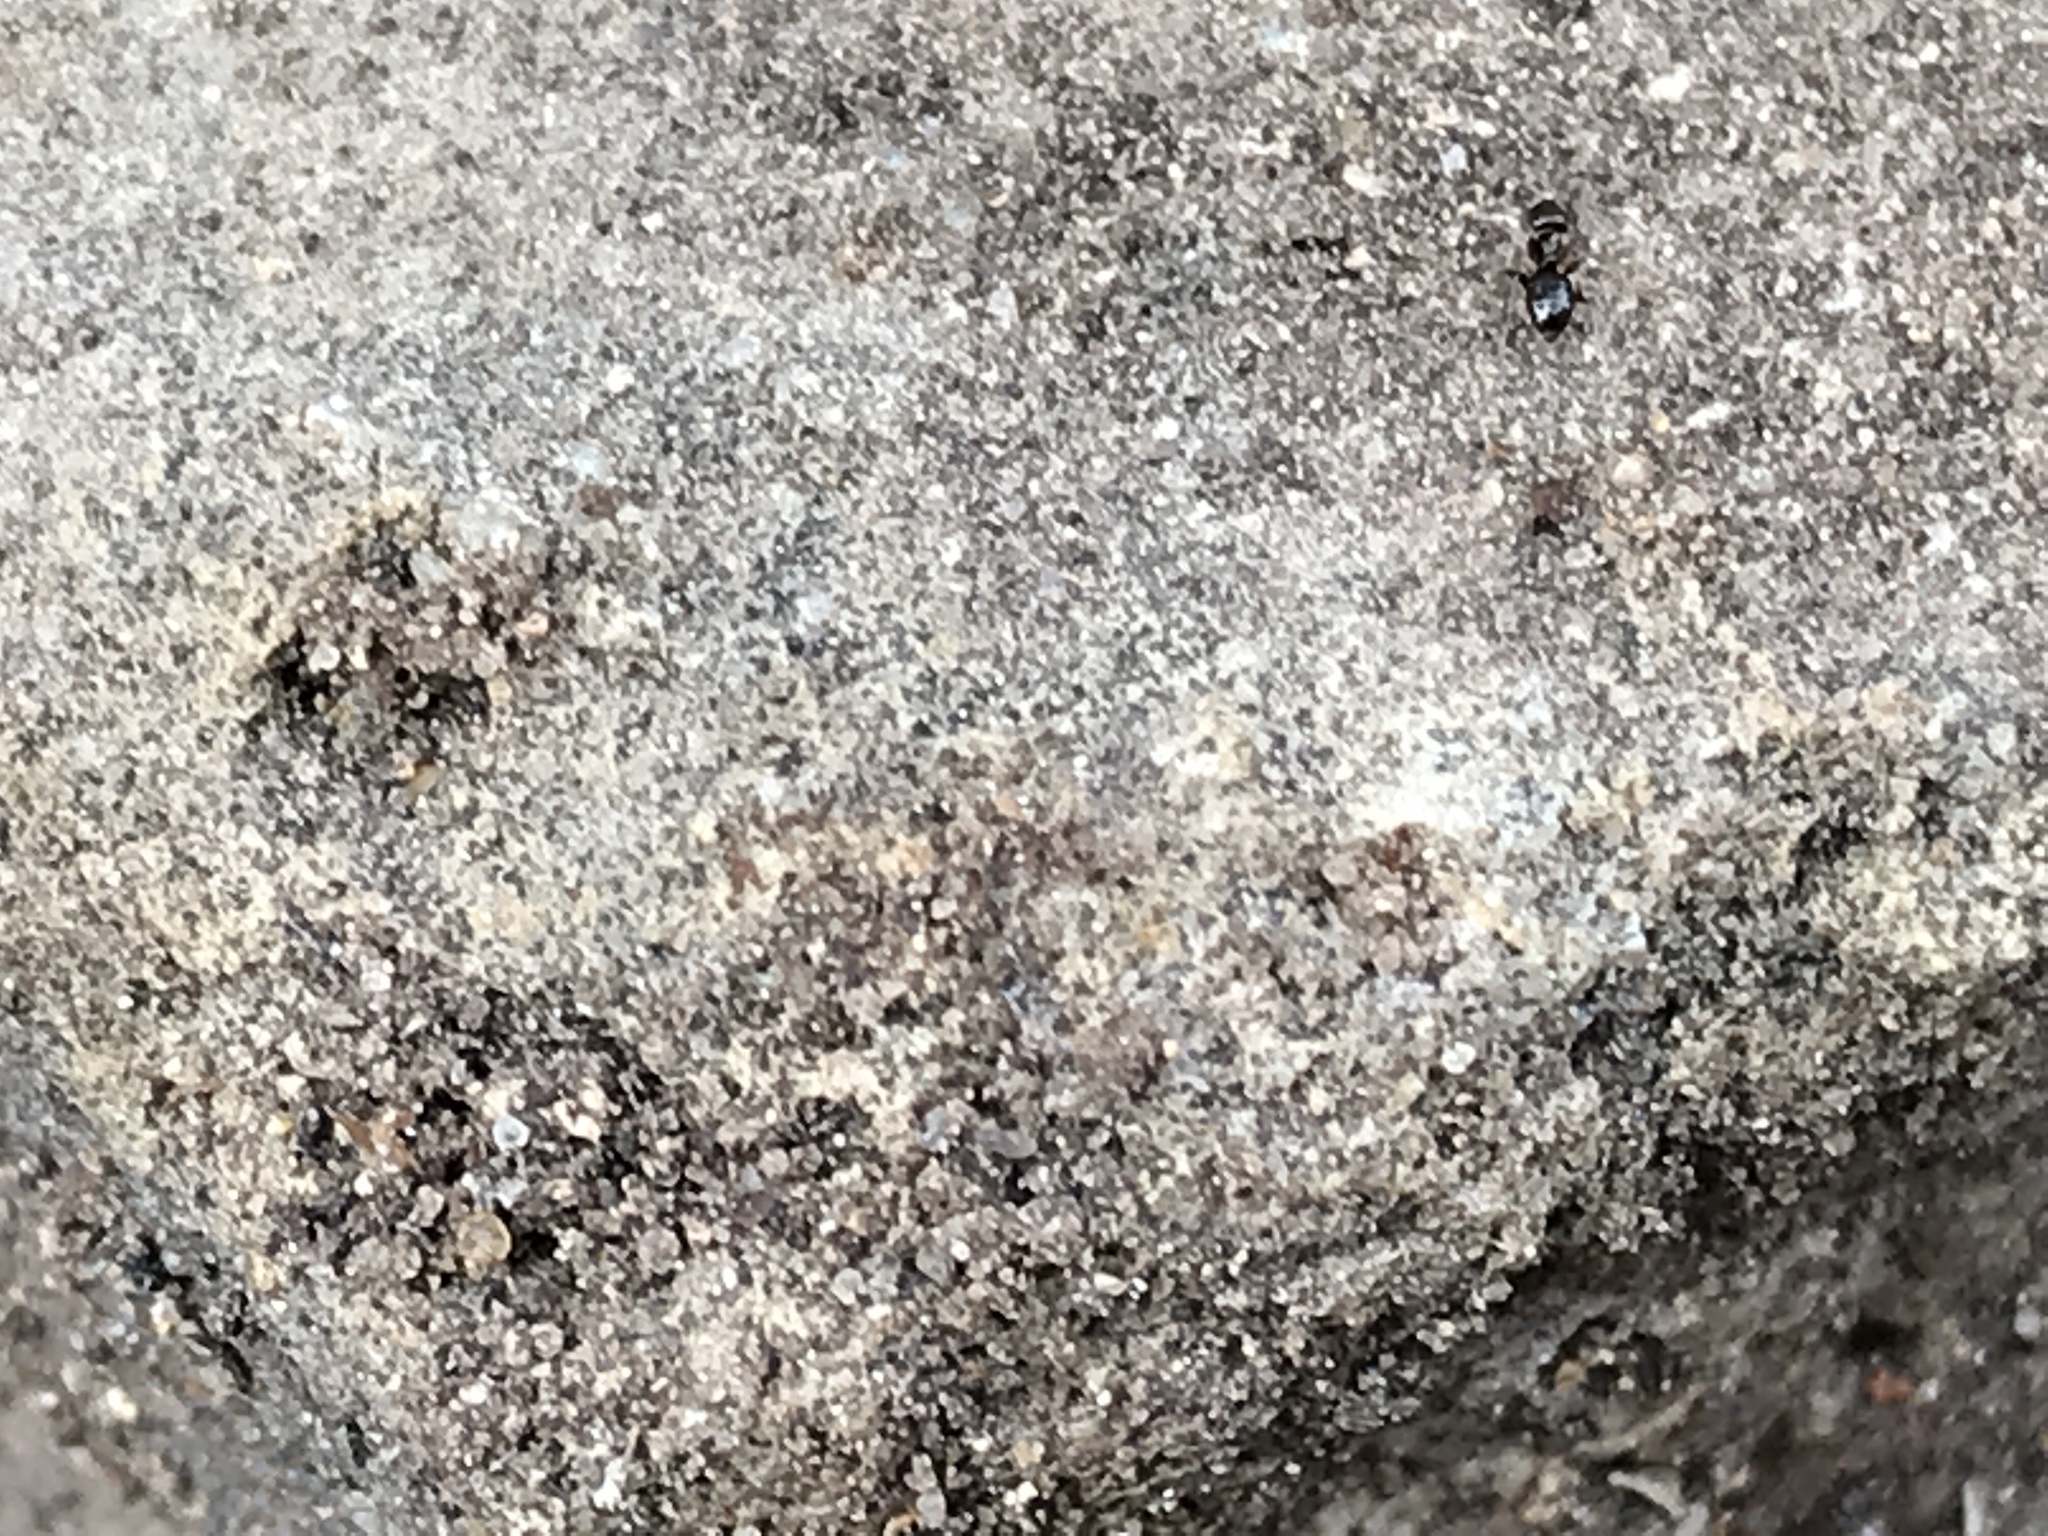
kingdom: Animalia
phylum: Arthropoda
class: Insecta
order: Hymenoptera
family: Formicidae
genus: Brachymyrmex
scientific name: Brachymyrmex patagonicus
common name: Dark rover ant
